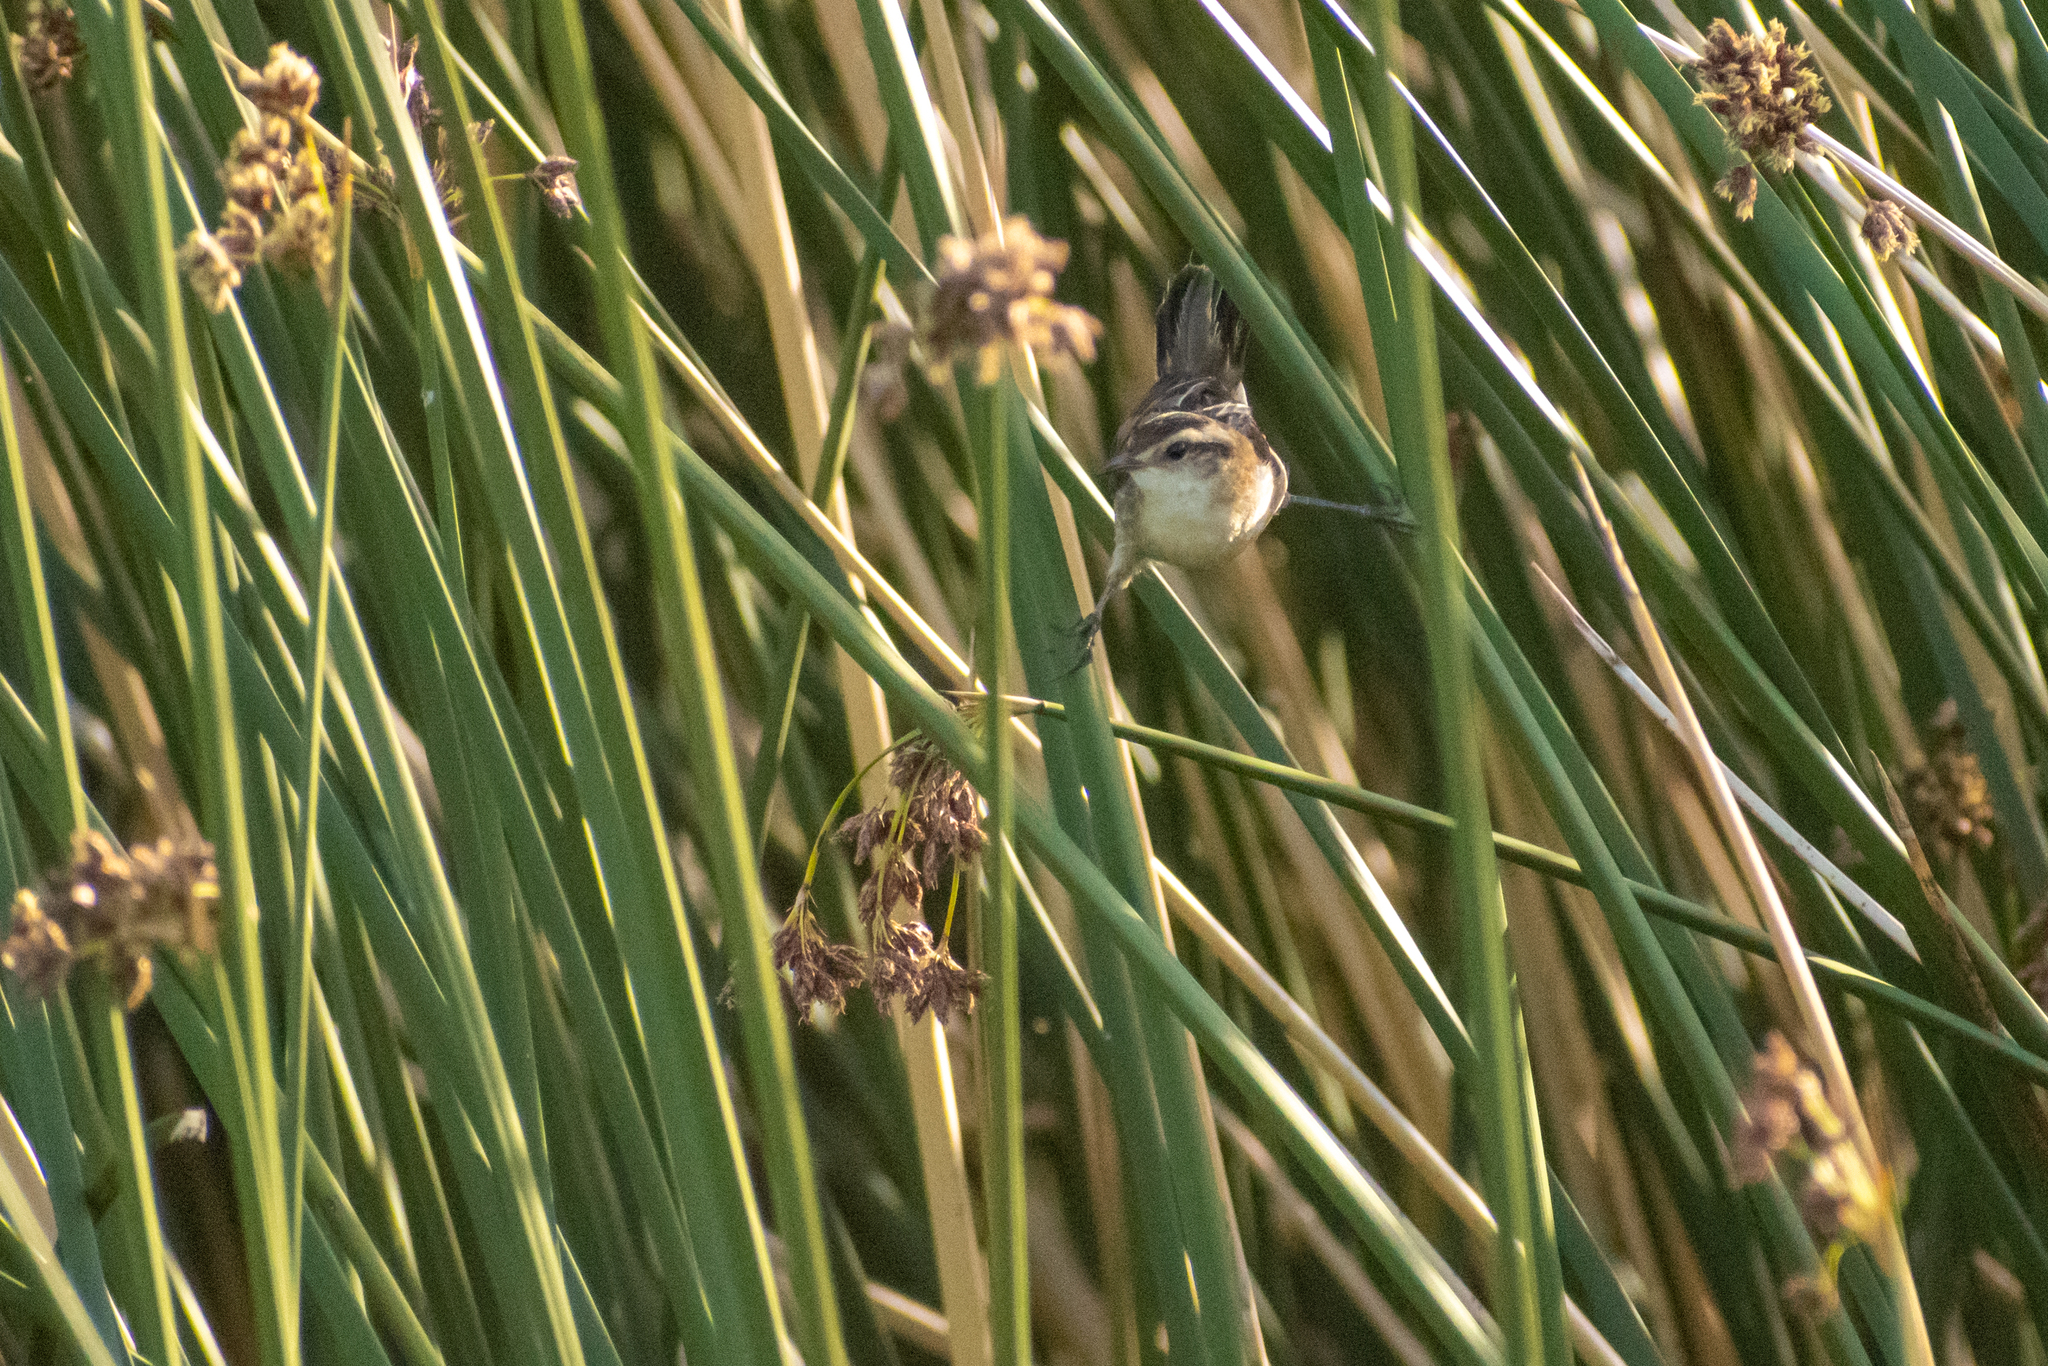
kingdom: Animalia
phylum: Chordata
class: Aves
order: Passeriformes
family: Furnariidae
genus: Phleocryptes
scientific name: Phleocryptes melanops
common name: Wren-like rushbird
